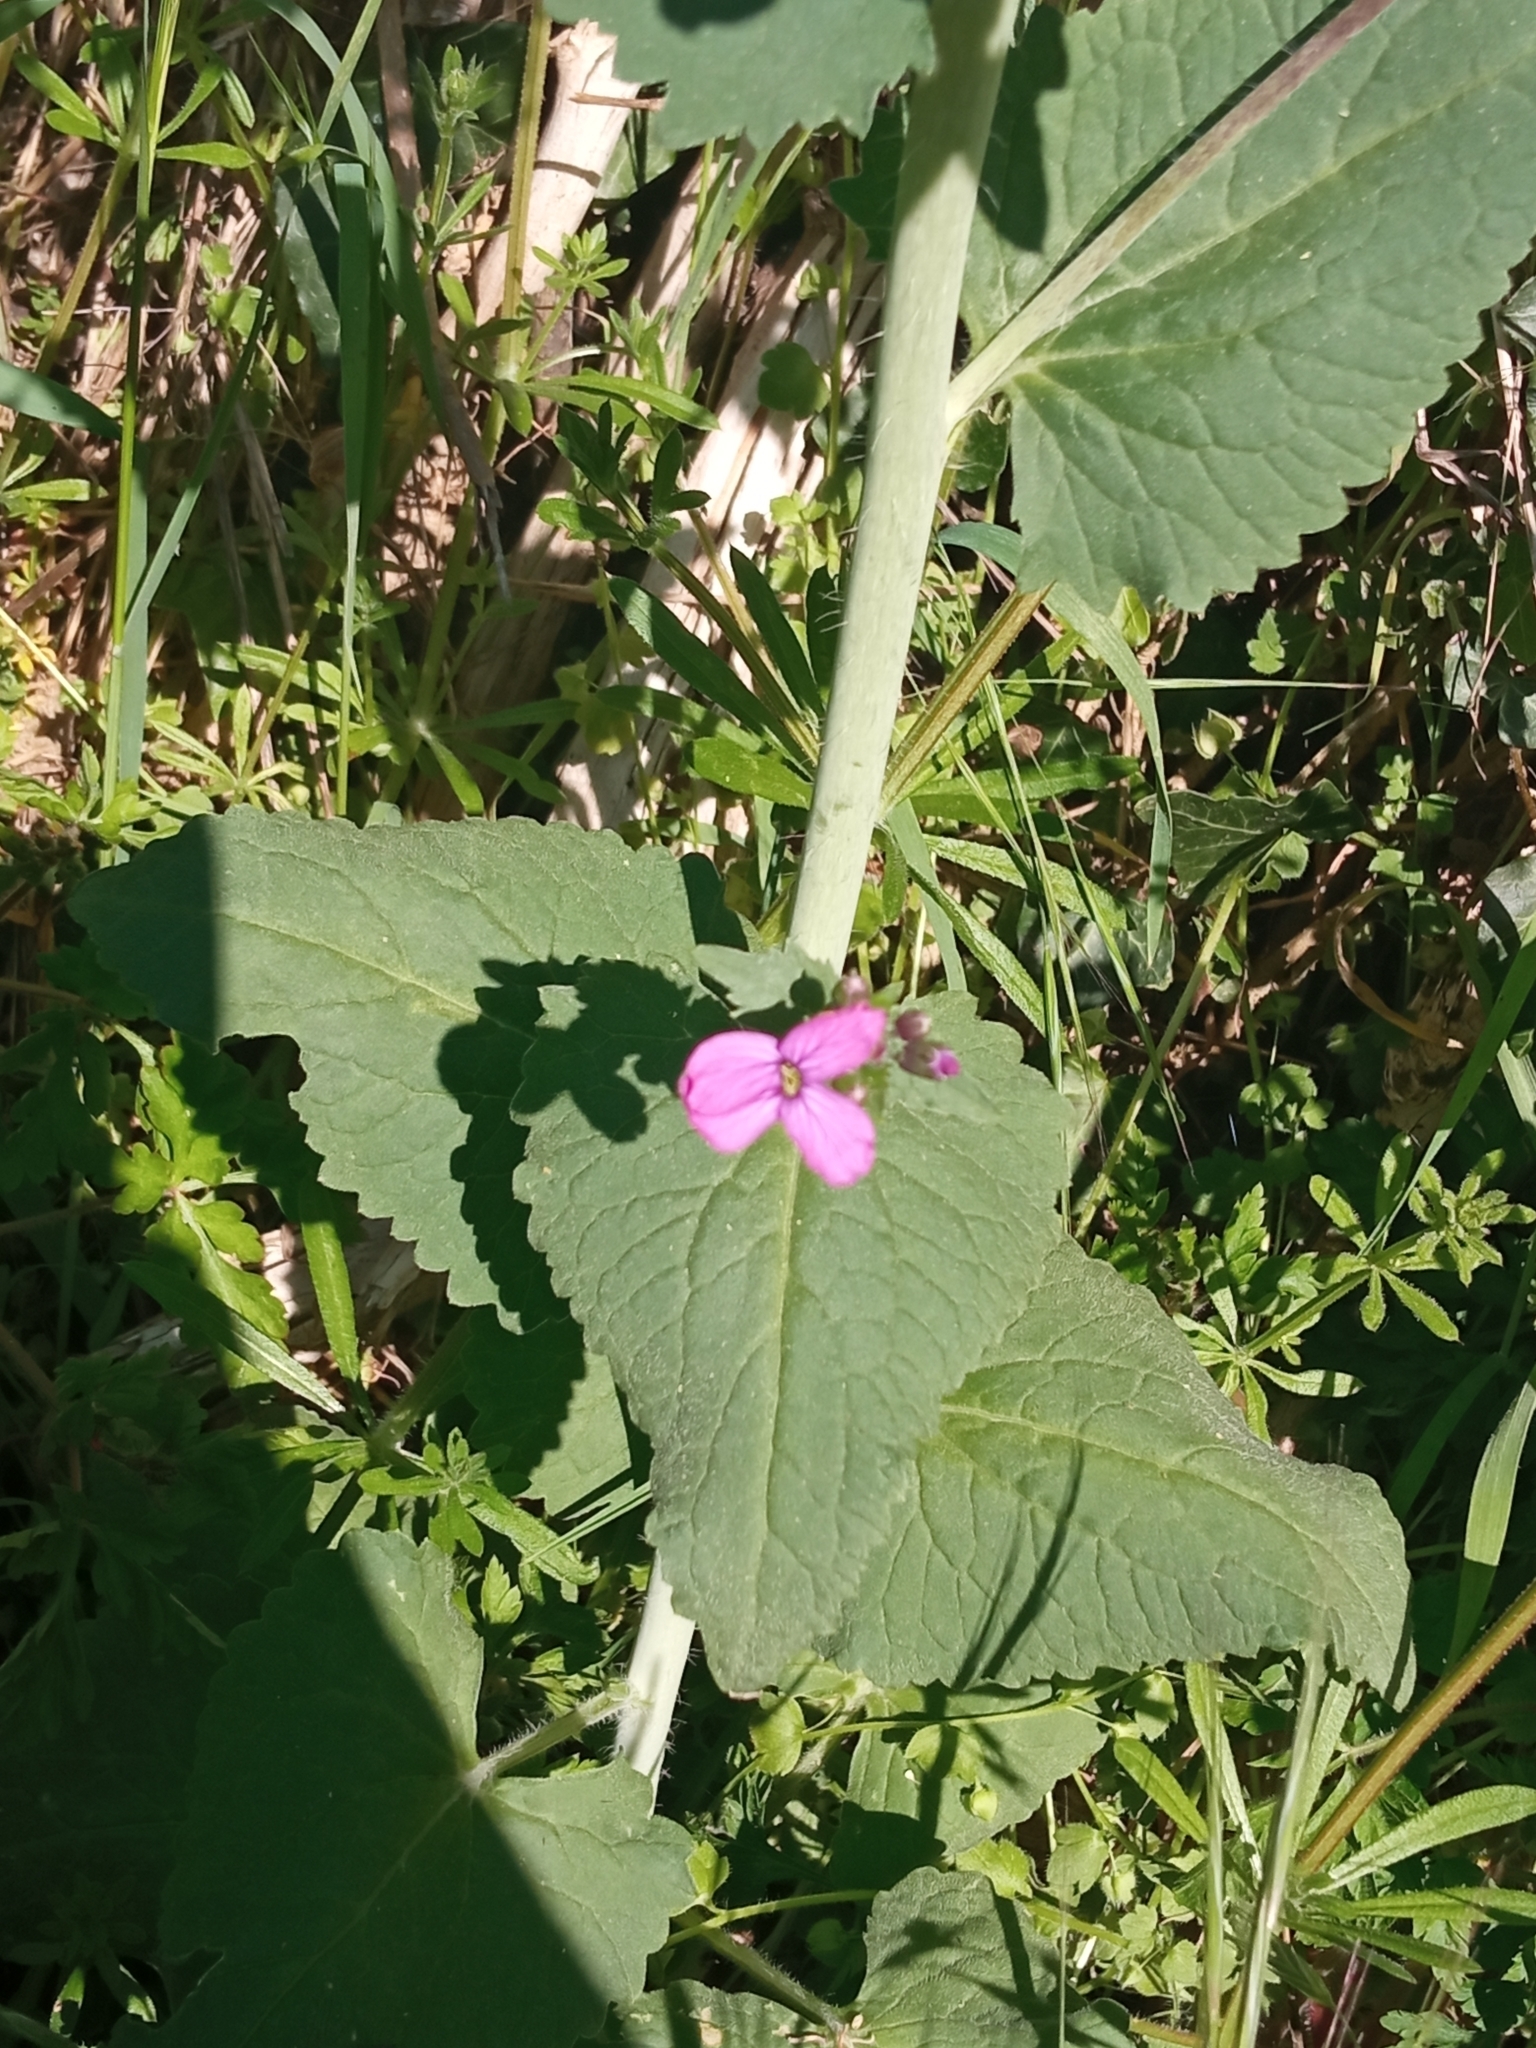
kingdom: Plantae
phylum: Tracheophyta
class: Magnoliopsida
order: Brassicales
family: Brassicaceae
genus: Lunaria
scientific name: Lunaria annua
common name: Honesty
